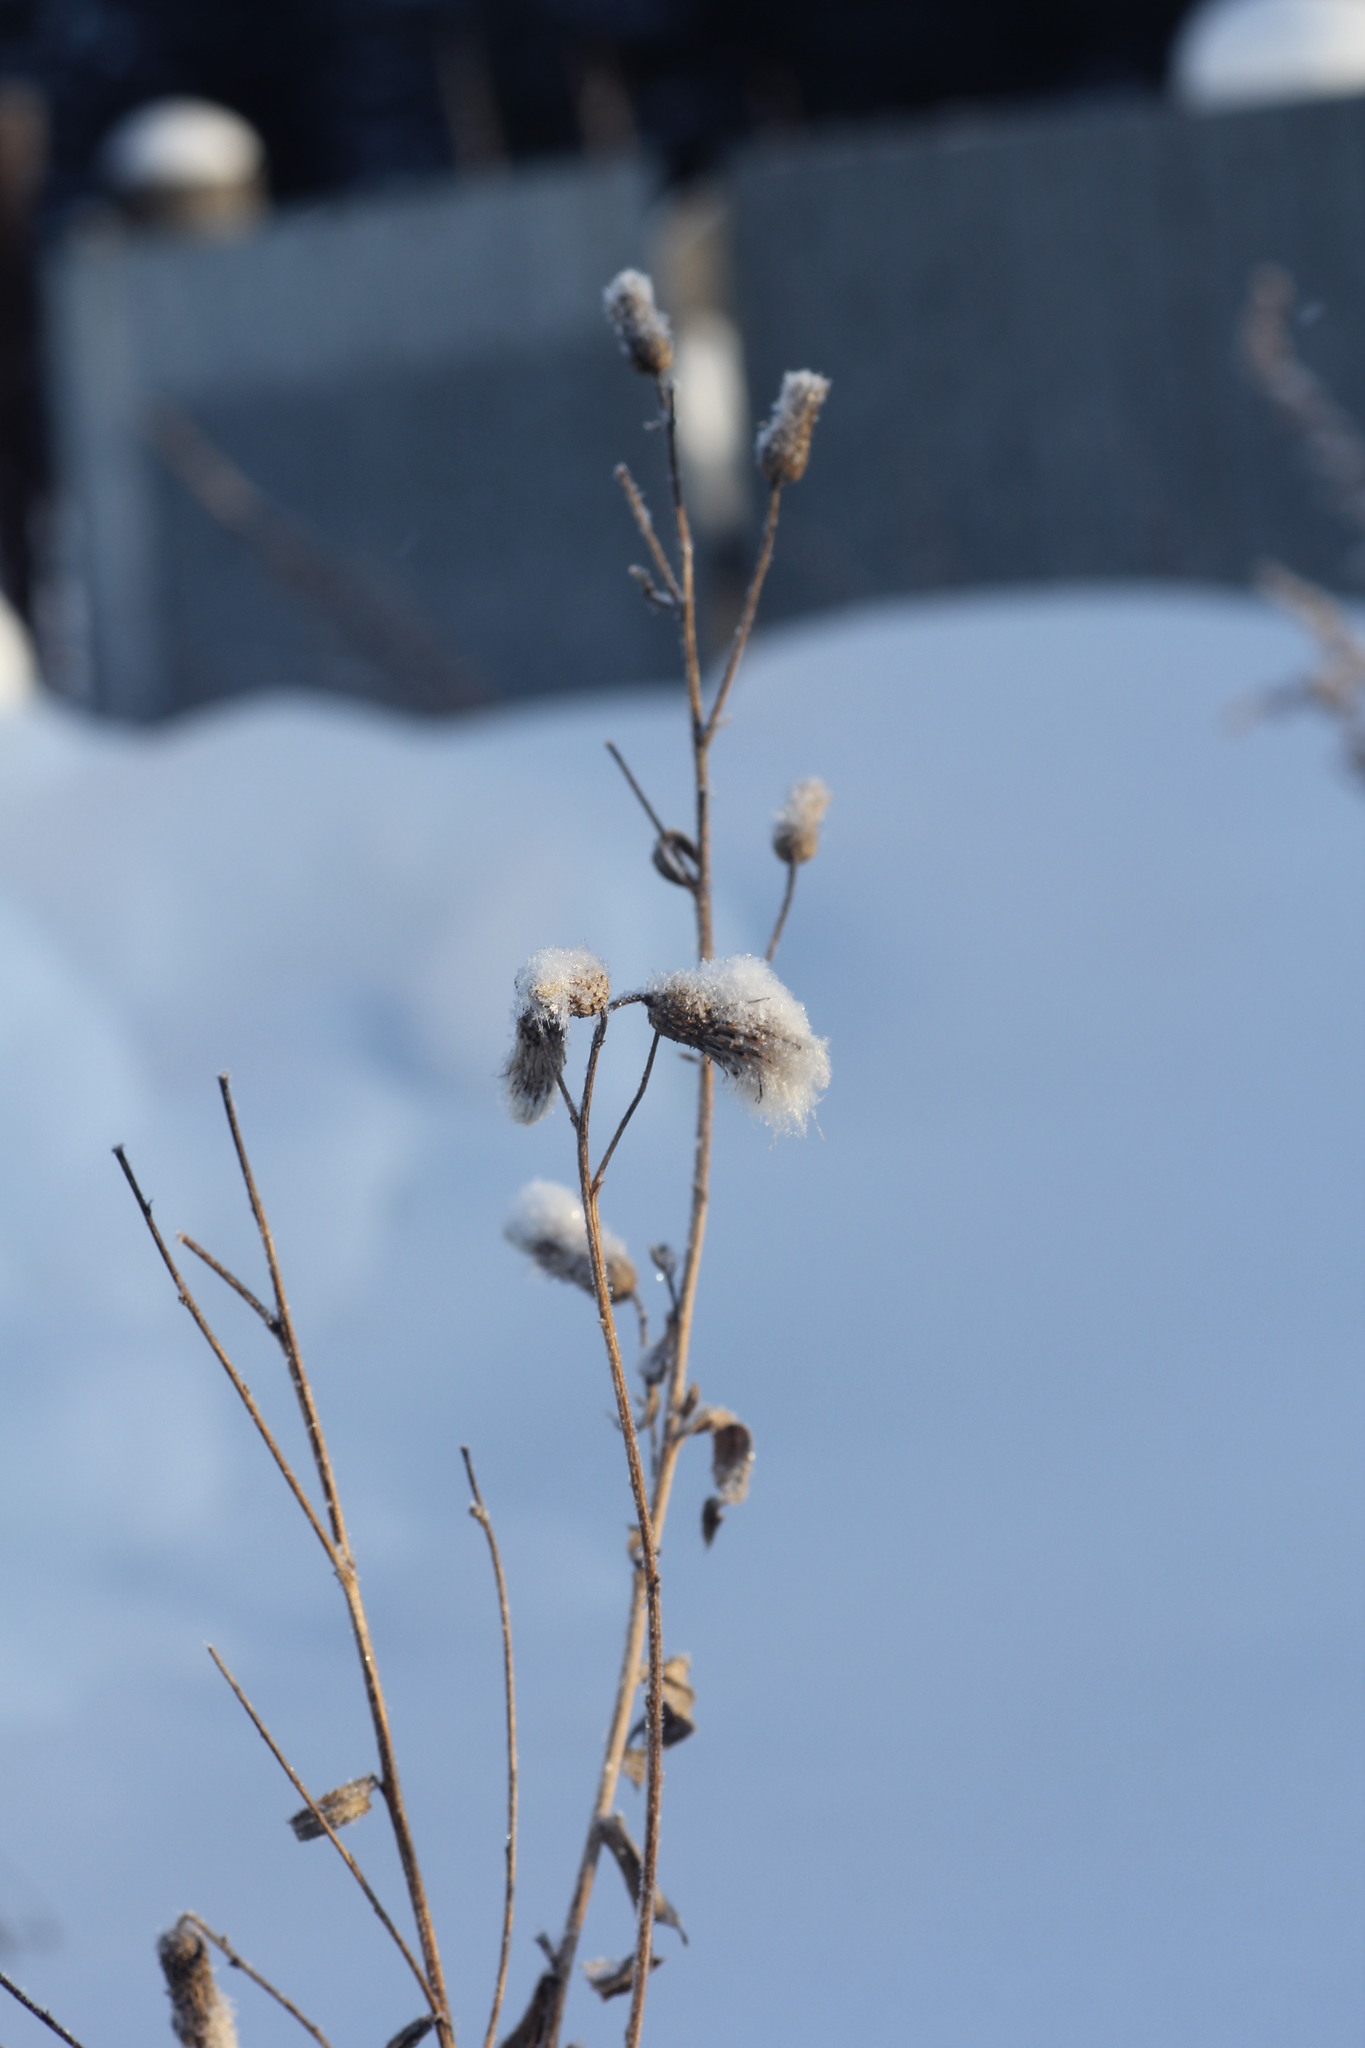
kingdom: Plantae
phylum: Tracheophyta
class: Magnoliopsida
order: Asterales
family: Asteraceae
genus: Cirsium
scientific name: Cirsium arvense
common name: Creeping thistle
